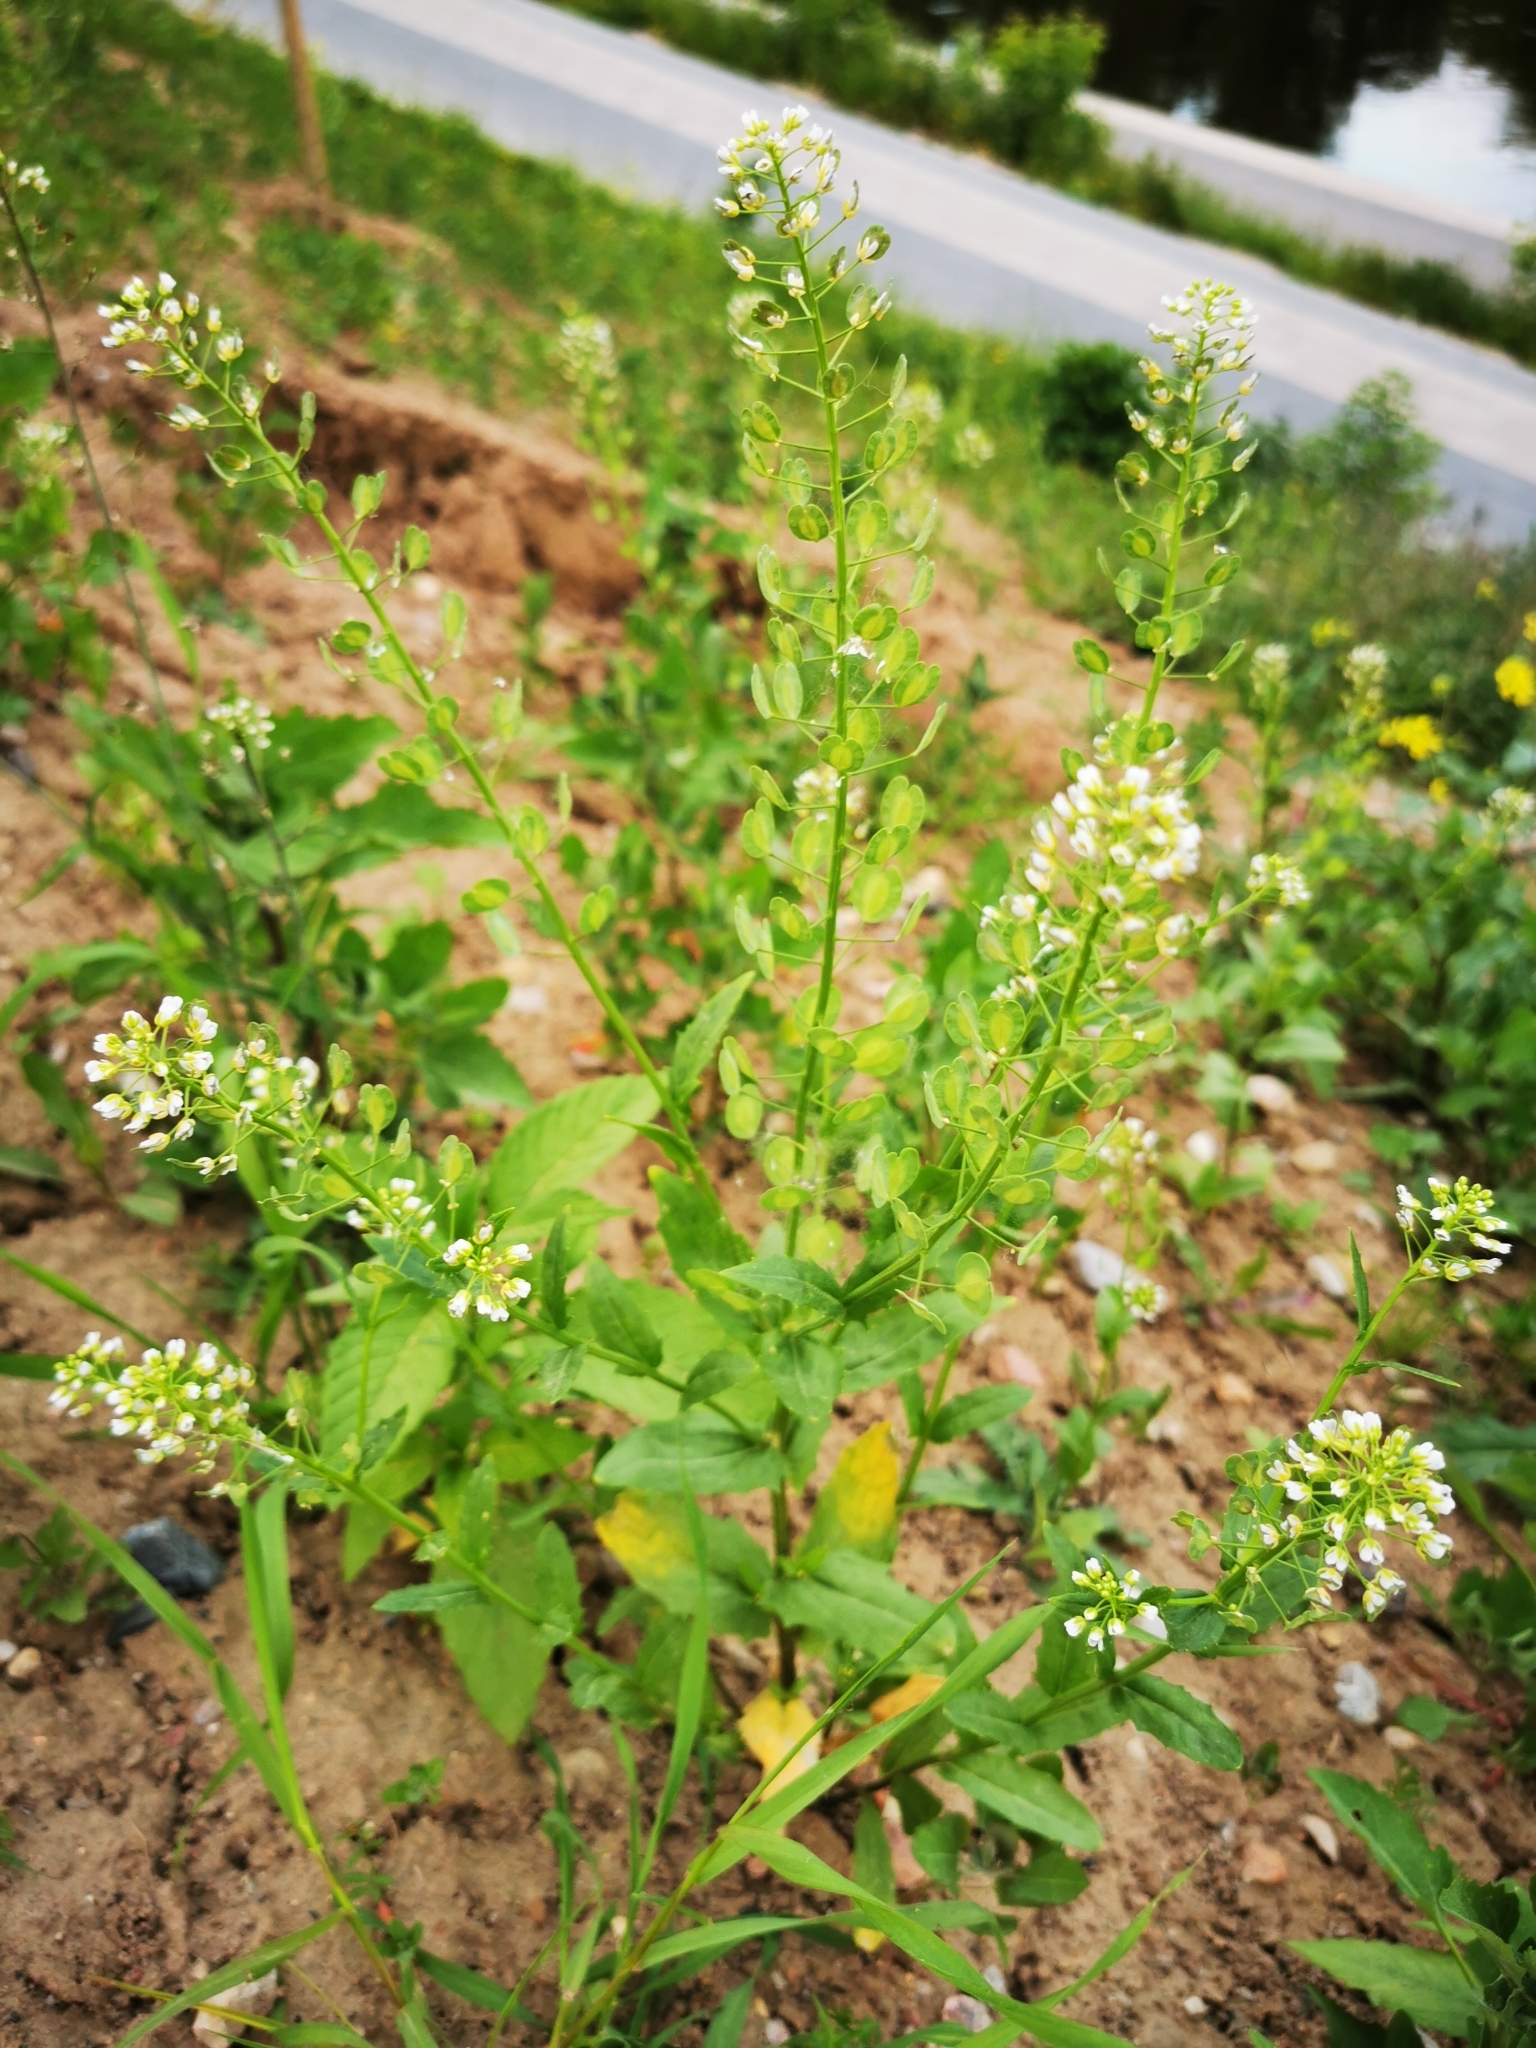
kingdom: Plantae
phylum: Tracheophyta
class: Magnoliopsida
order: Brassicales
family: Brassicaceae
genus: Thlaspi
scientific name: Thlaspi arvense
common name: Field pennycress
